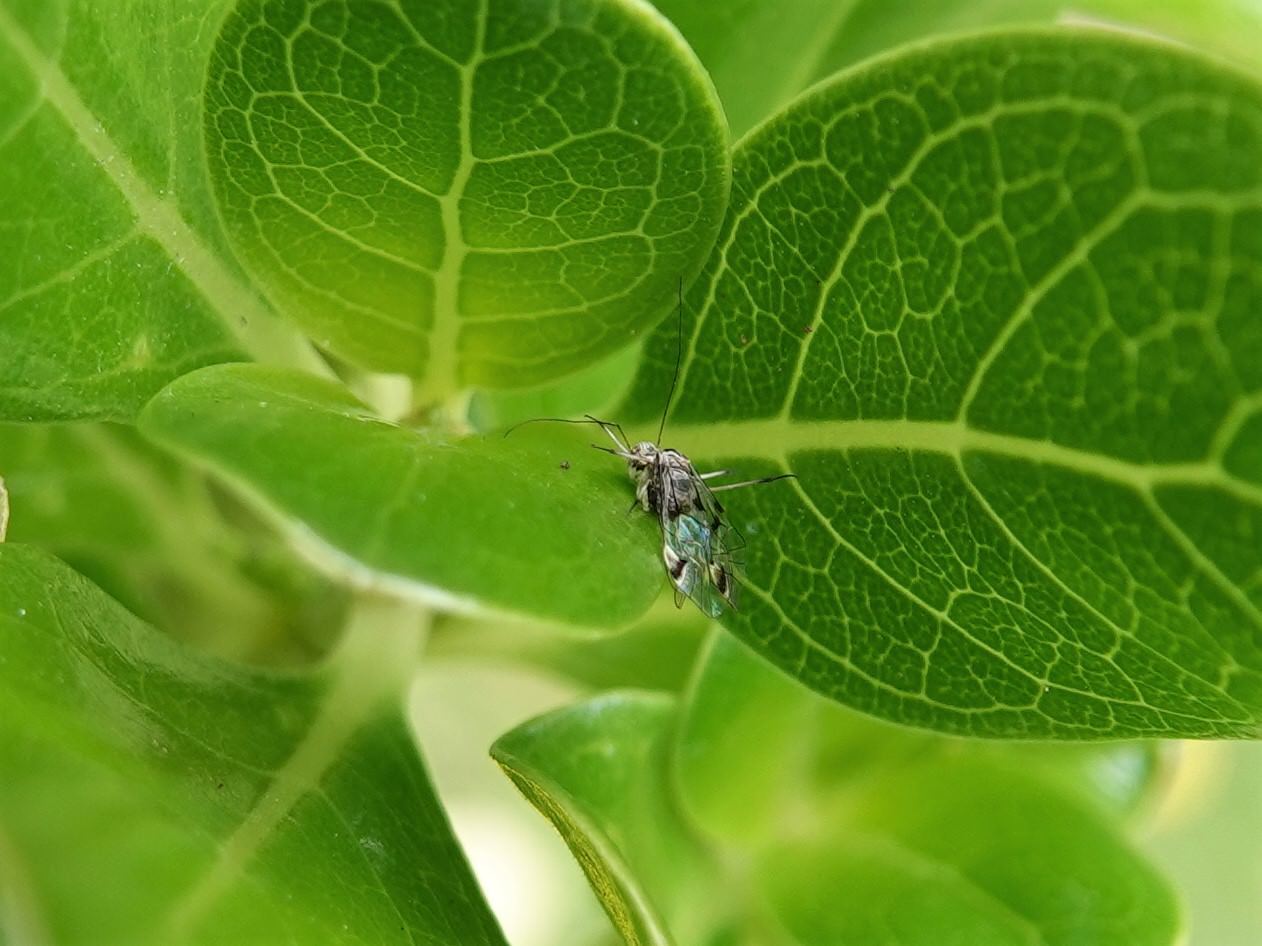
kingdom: Animalia
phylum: Arthropoda
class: Insecta
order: Psocodea
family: Psocidae
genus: Clematostigma
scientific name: Clematostigma maculiceps
